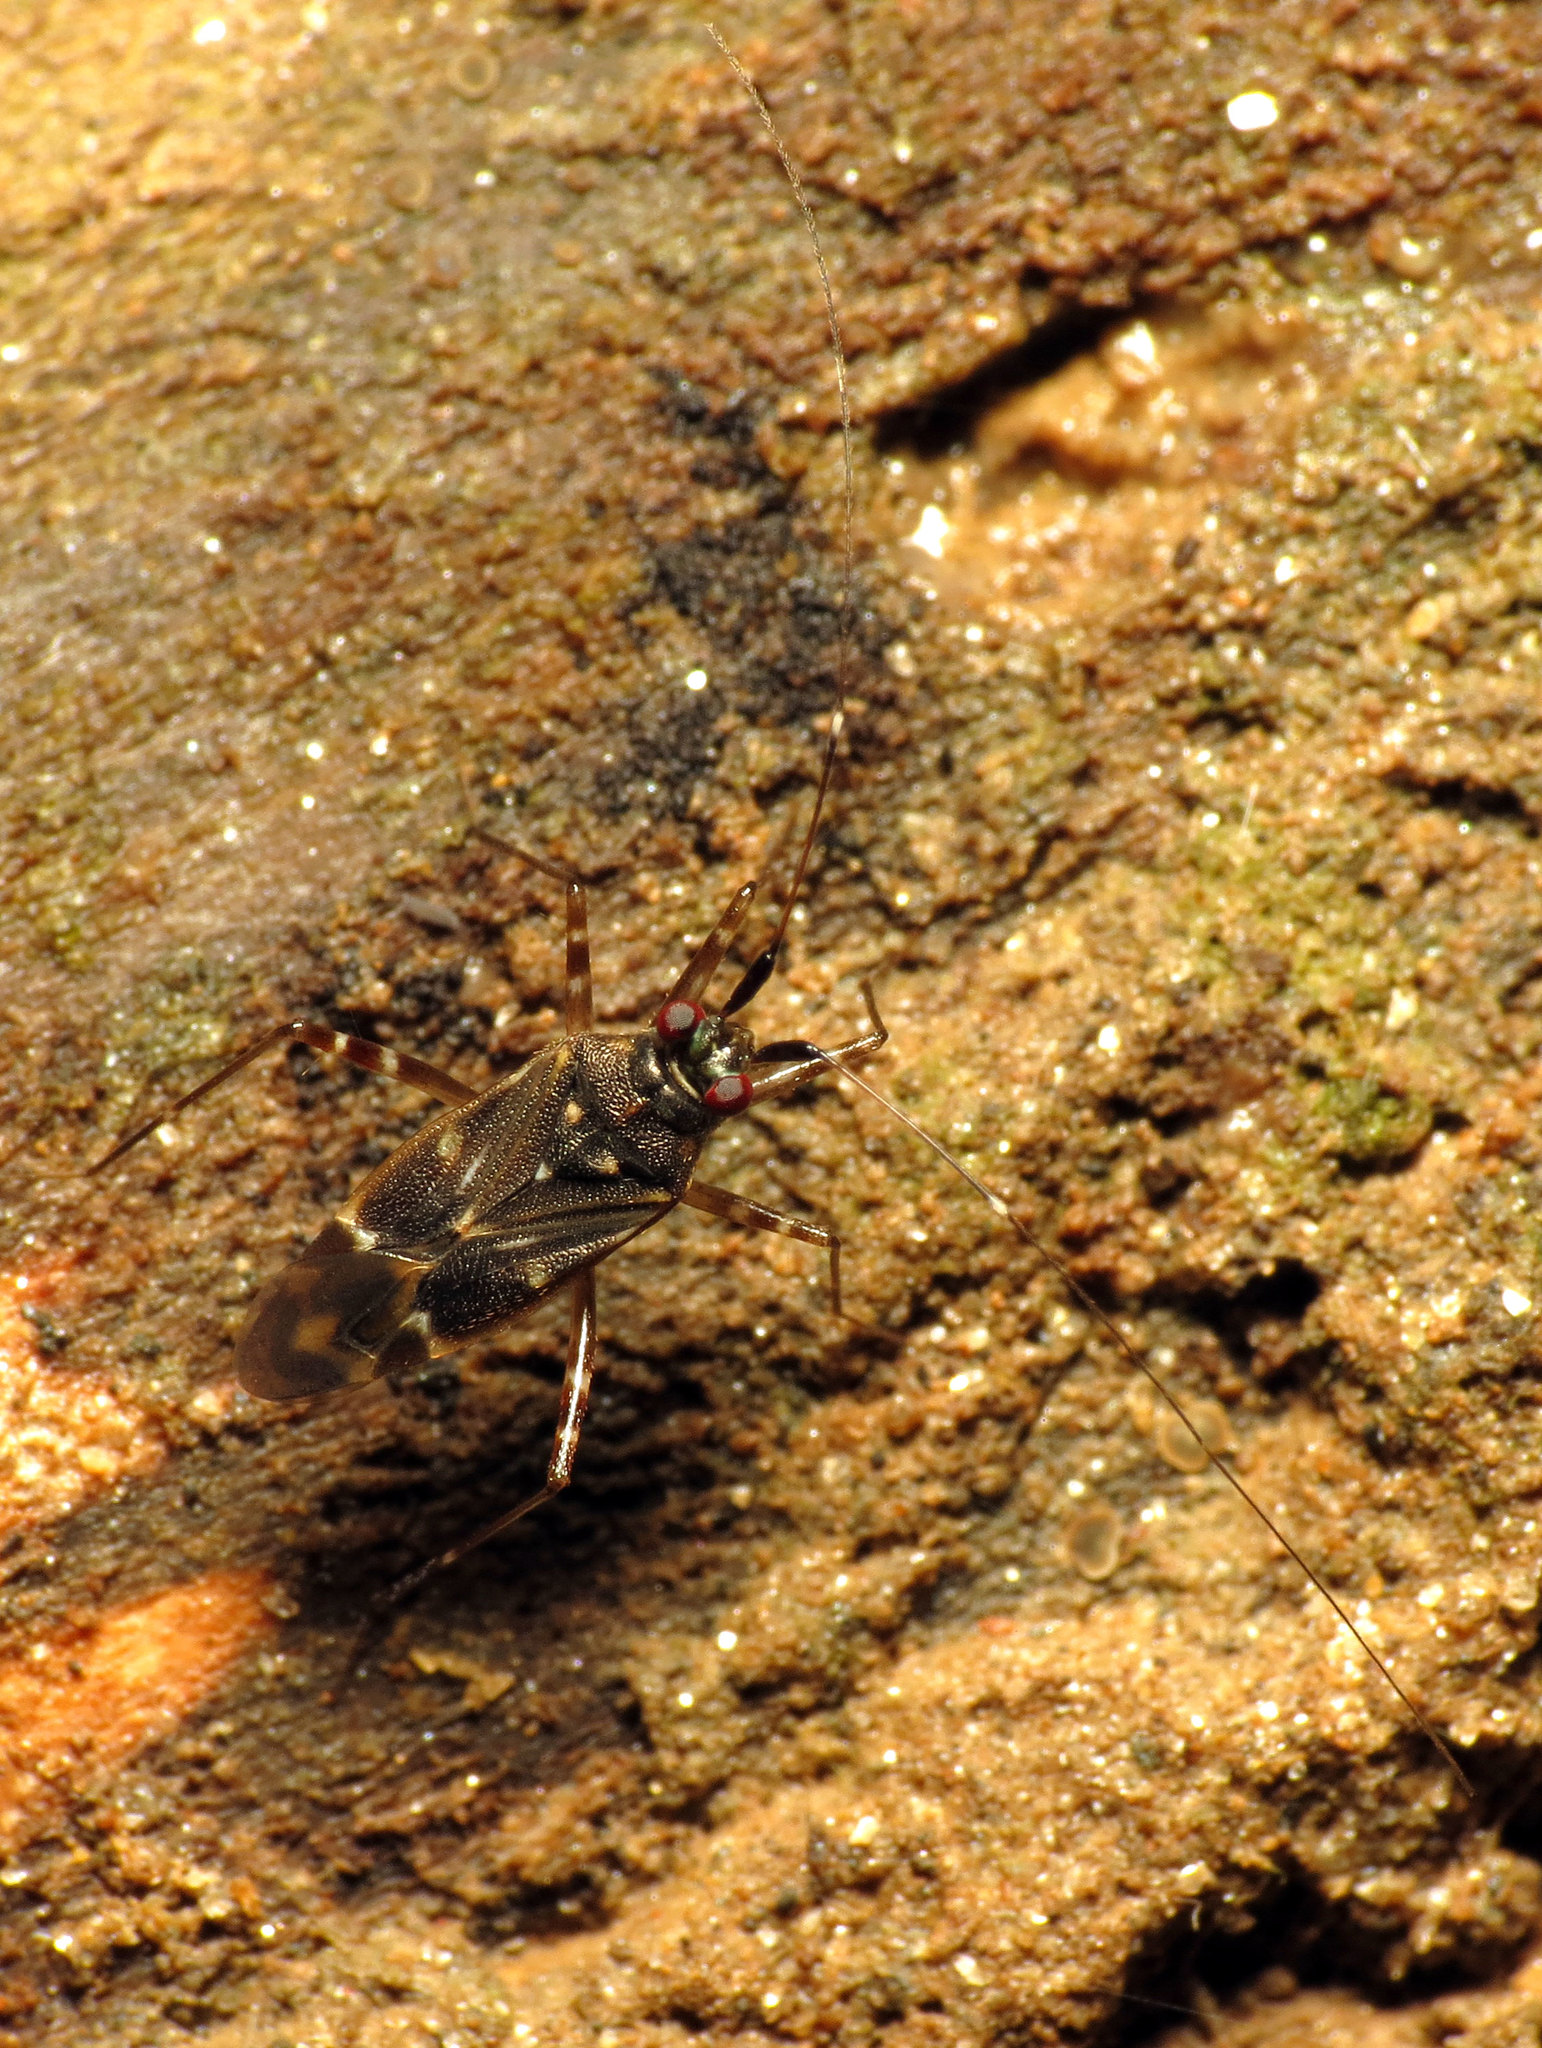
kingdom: Animalia
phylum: Arthropoda
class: Insecta
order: Hemiptera
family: Miridae
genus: Cylapus
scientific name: Cylapus tenuicornis
